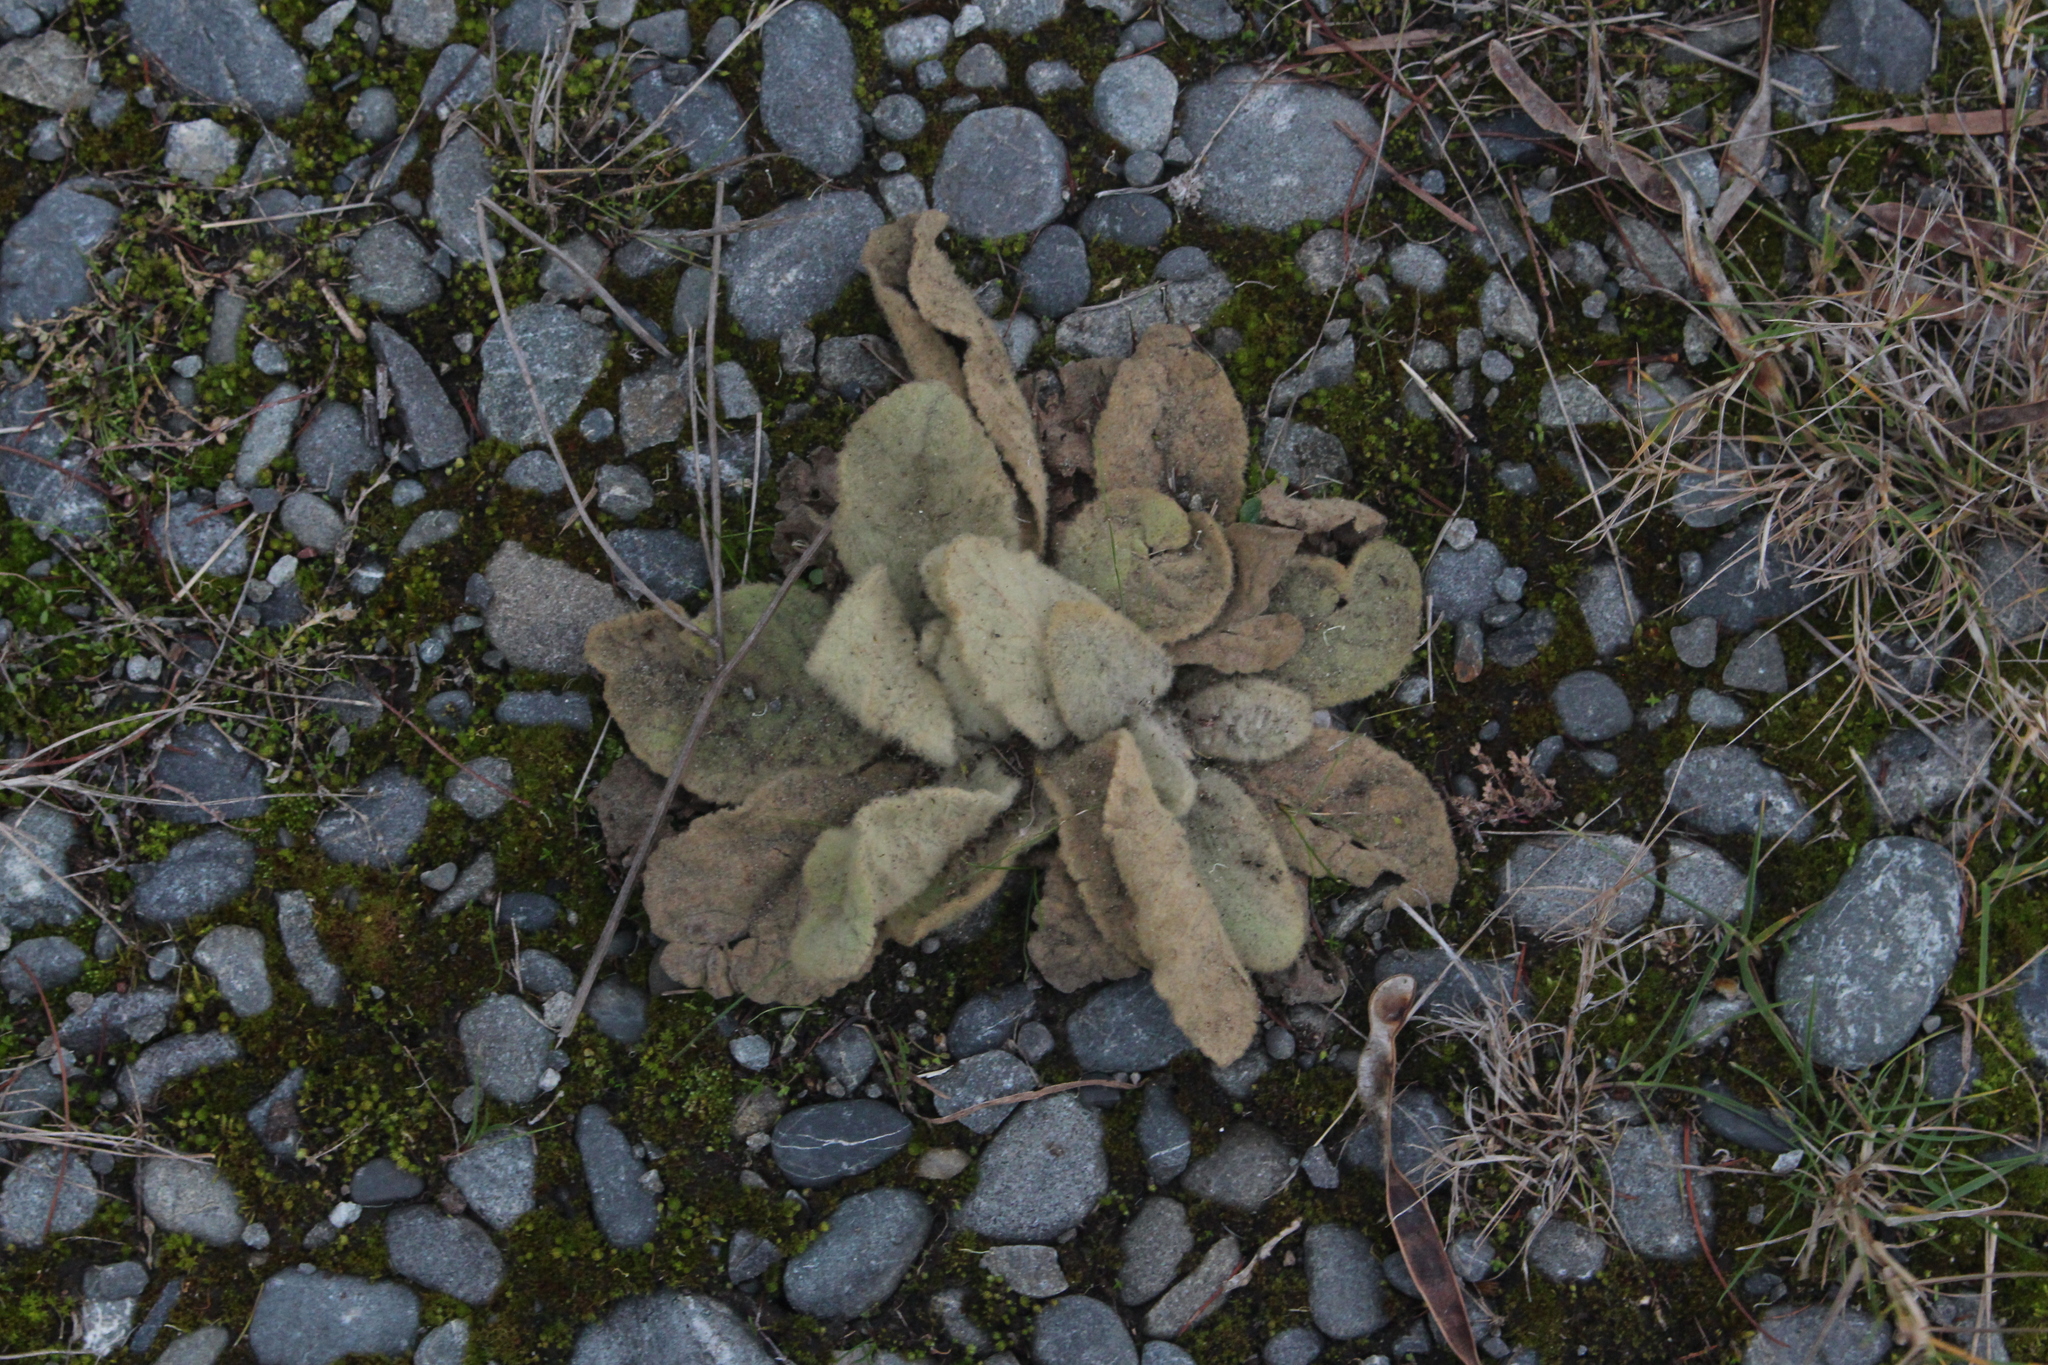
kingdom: Plantae
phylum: Tracheophyta
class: Magnoliopsida
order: Lamiales
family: Scrophulariaceae
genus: Verbascum
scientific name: Verbascum thapsus
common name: Common mullein
